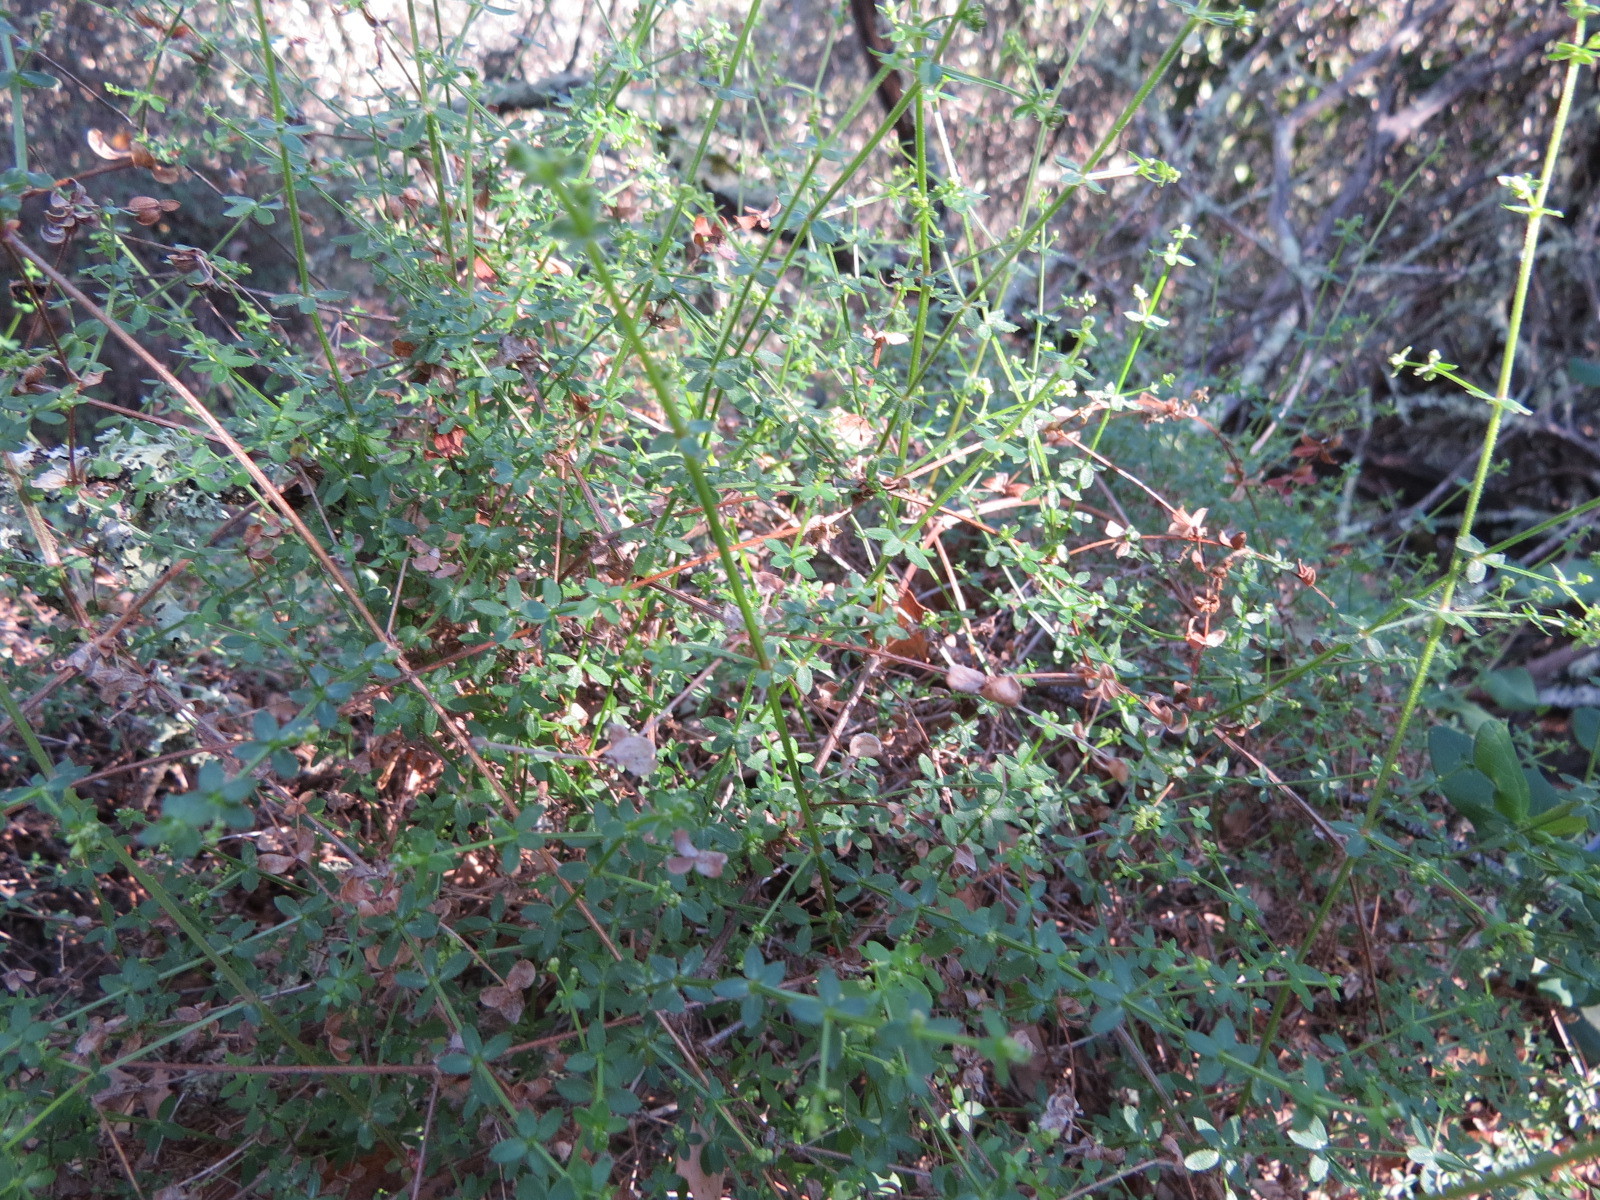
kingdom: Plantae
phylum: Tracheophyta
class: Magnoliopsida
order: Fabales
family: Fabaceae
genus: Acmispon
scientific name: Acmispon glaber
